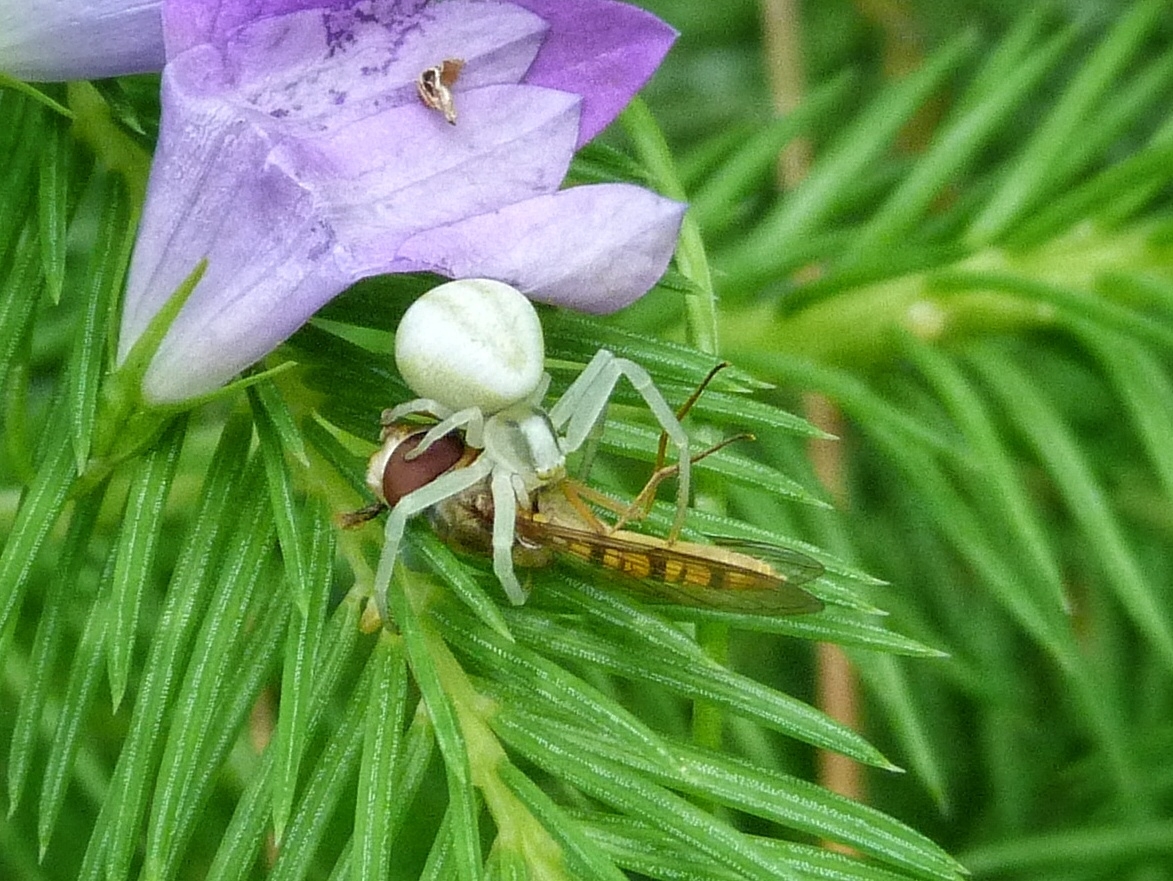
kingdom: Animalia
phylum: Arthropoda
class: Arachnida
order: Araneae
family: Thomisidae
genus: Misumena
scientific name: Misumena vatia
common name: Goldenrod crab spider
